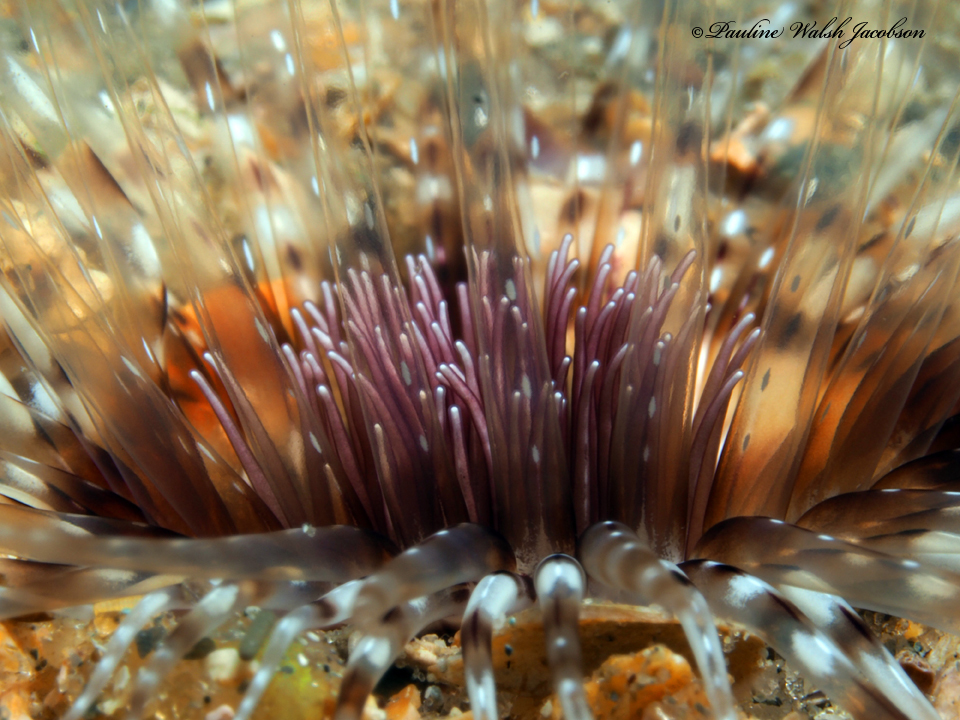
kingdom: Animalia
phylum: Cnidaria
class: Anthozoa
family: Cerianthidae
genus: Ceriantheopsis
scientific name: Ceriantheopsis americana
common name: American tube-dwelling anemone
